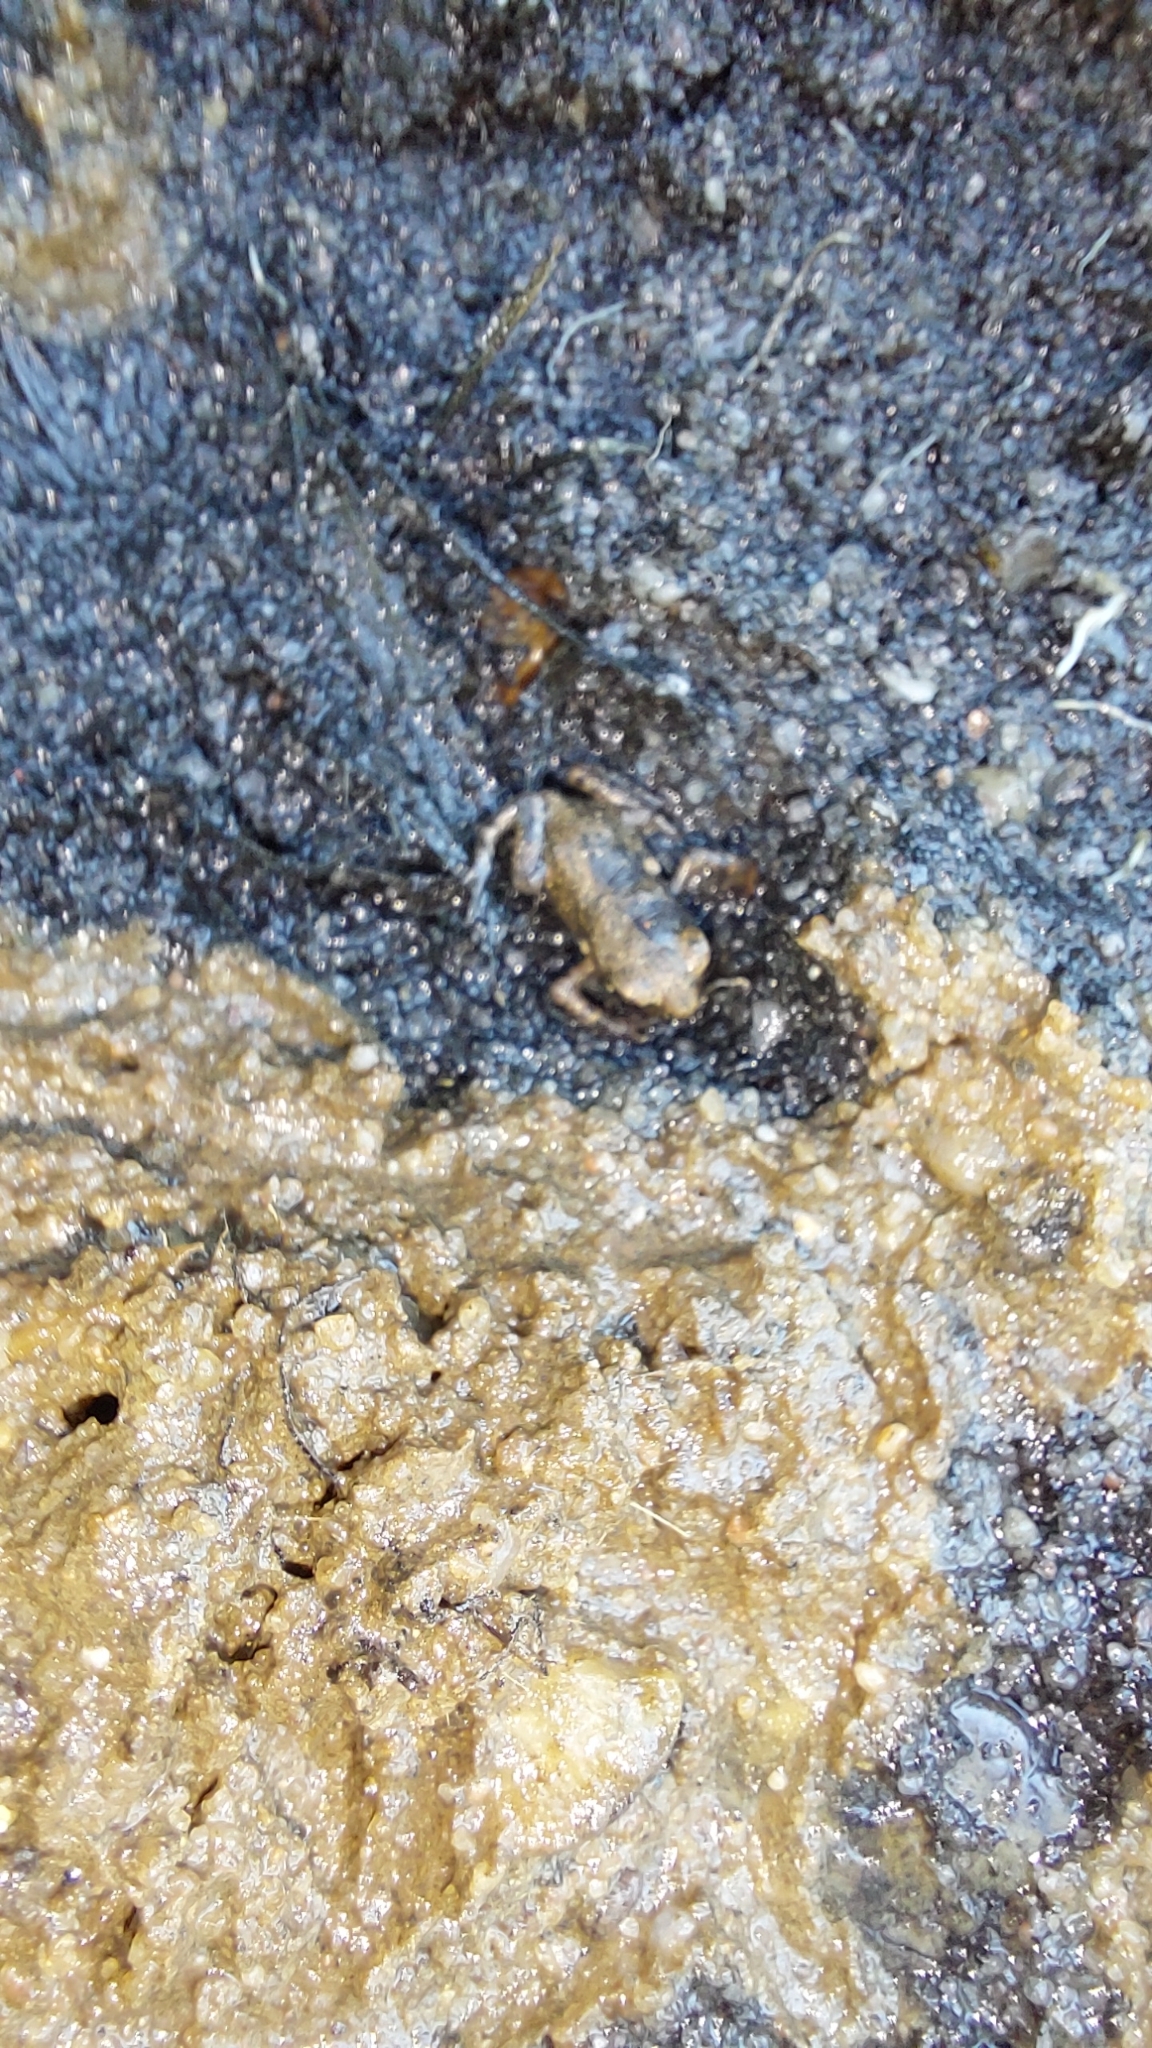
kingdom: Animalia
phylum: Chordata
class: Amphibia
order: Anura
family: Bufonidae
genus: Bufo
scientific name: Bufo bufo
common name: Common toad
